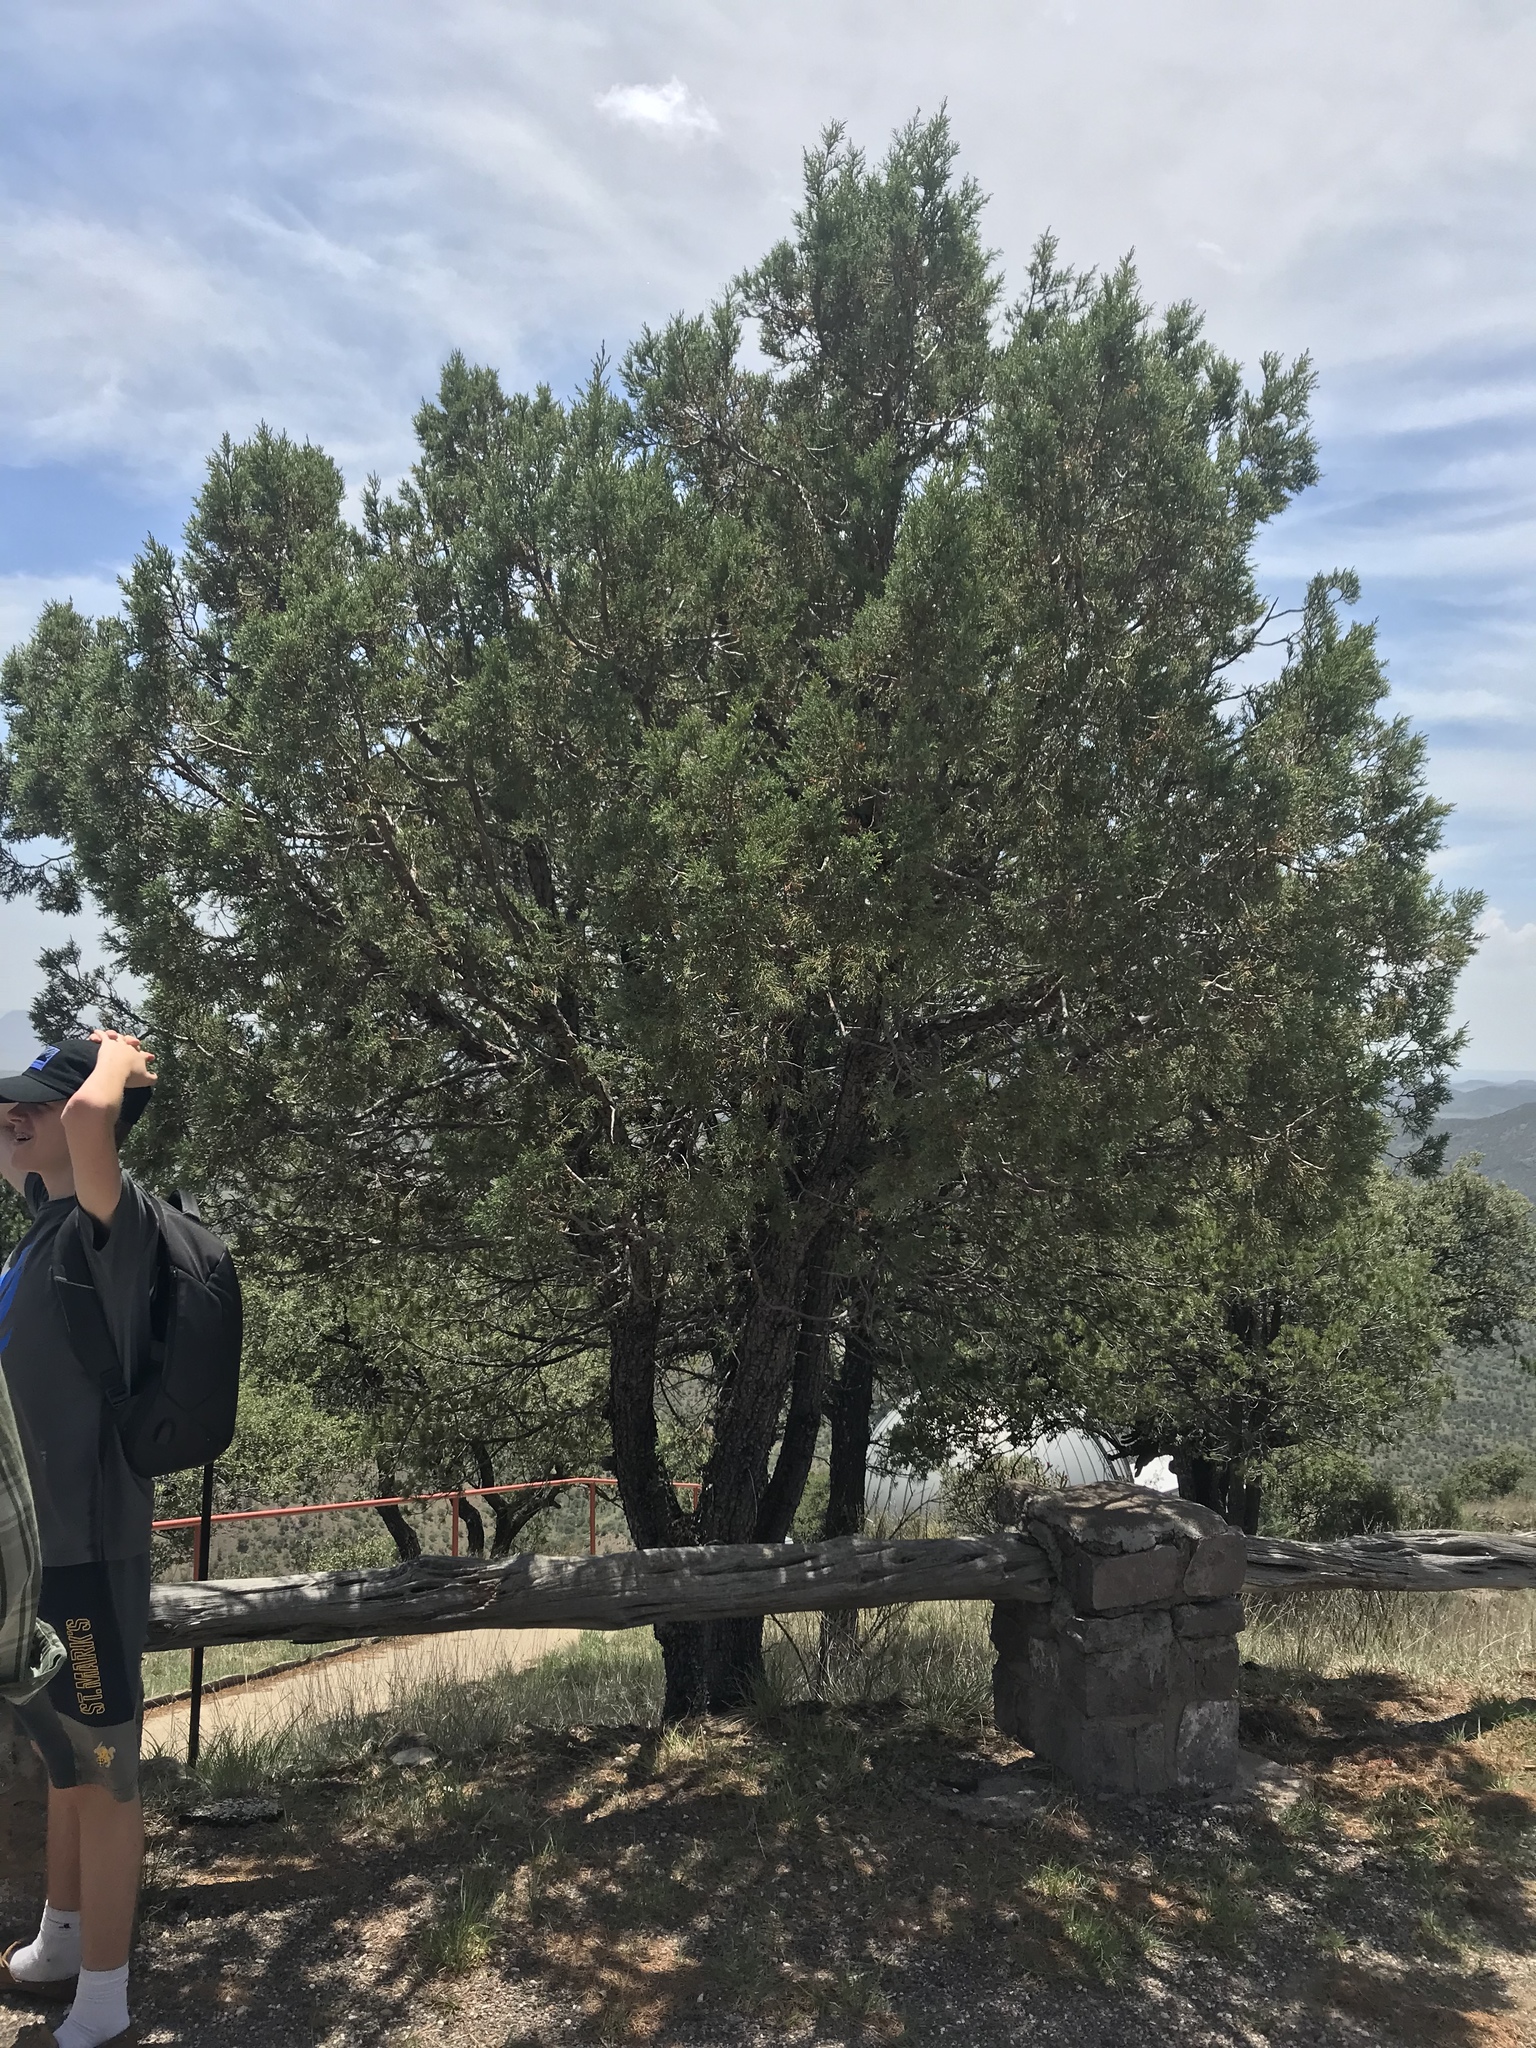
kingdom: Plantae
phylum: Tracheophyta
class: Pinopsida
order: Pinales
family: Cupressaceae
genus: Juniperus
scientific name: Juniperus deppeana
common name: Alligator juniper
